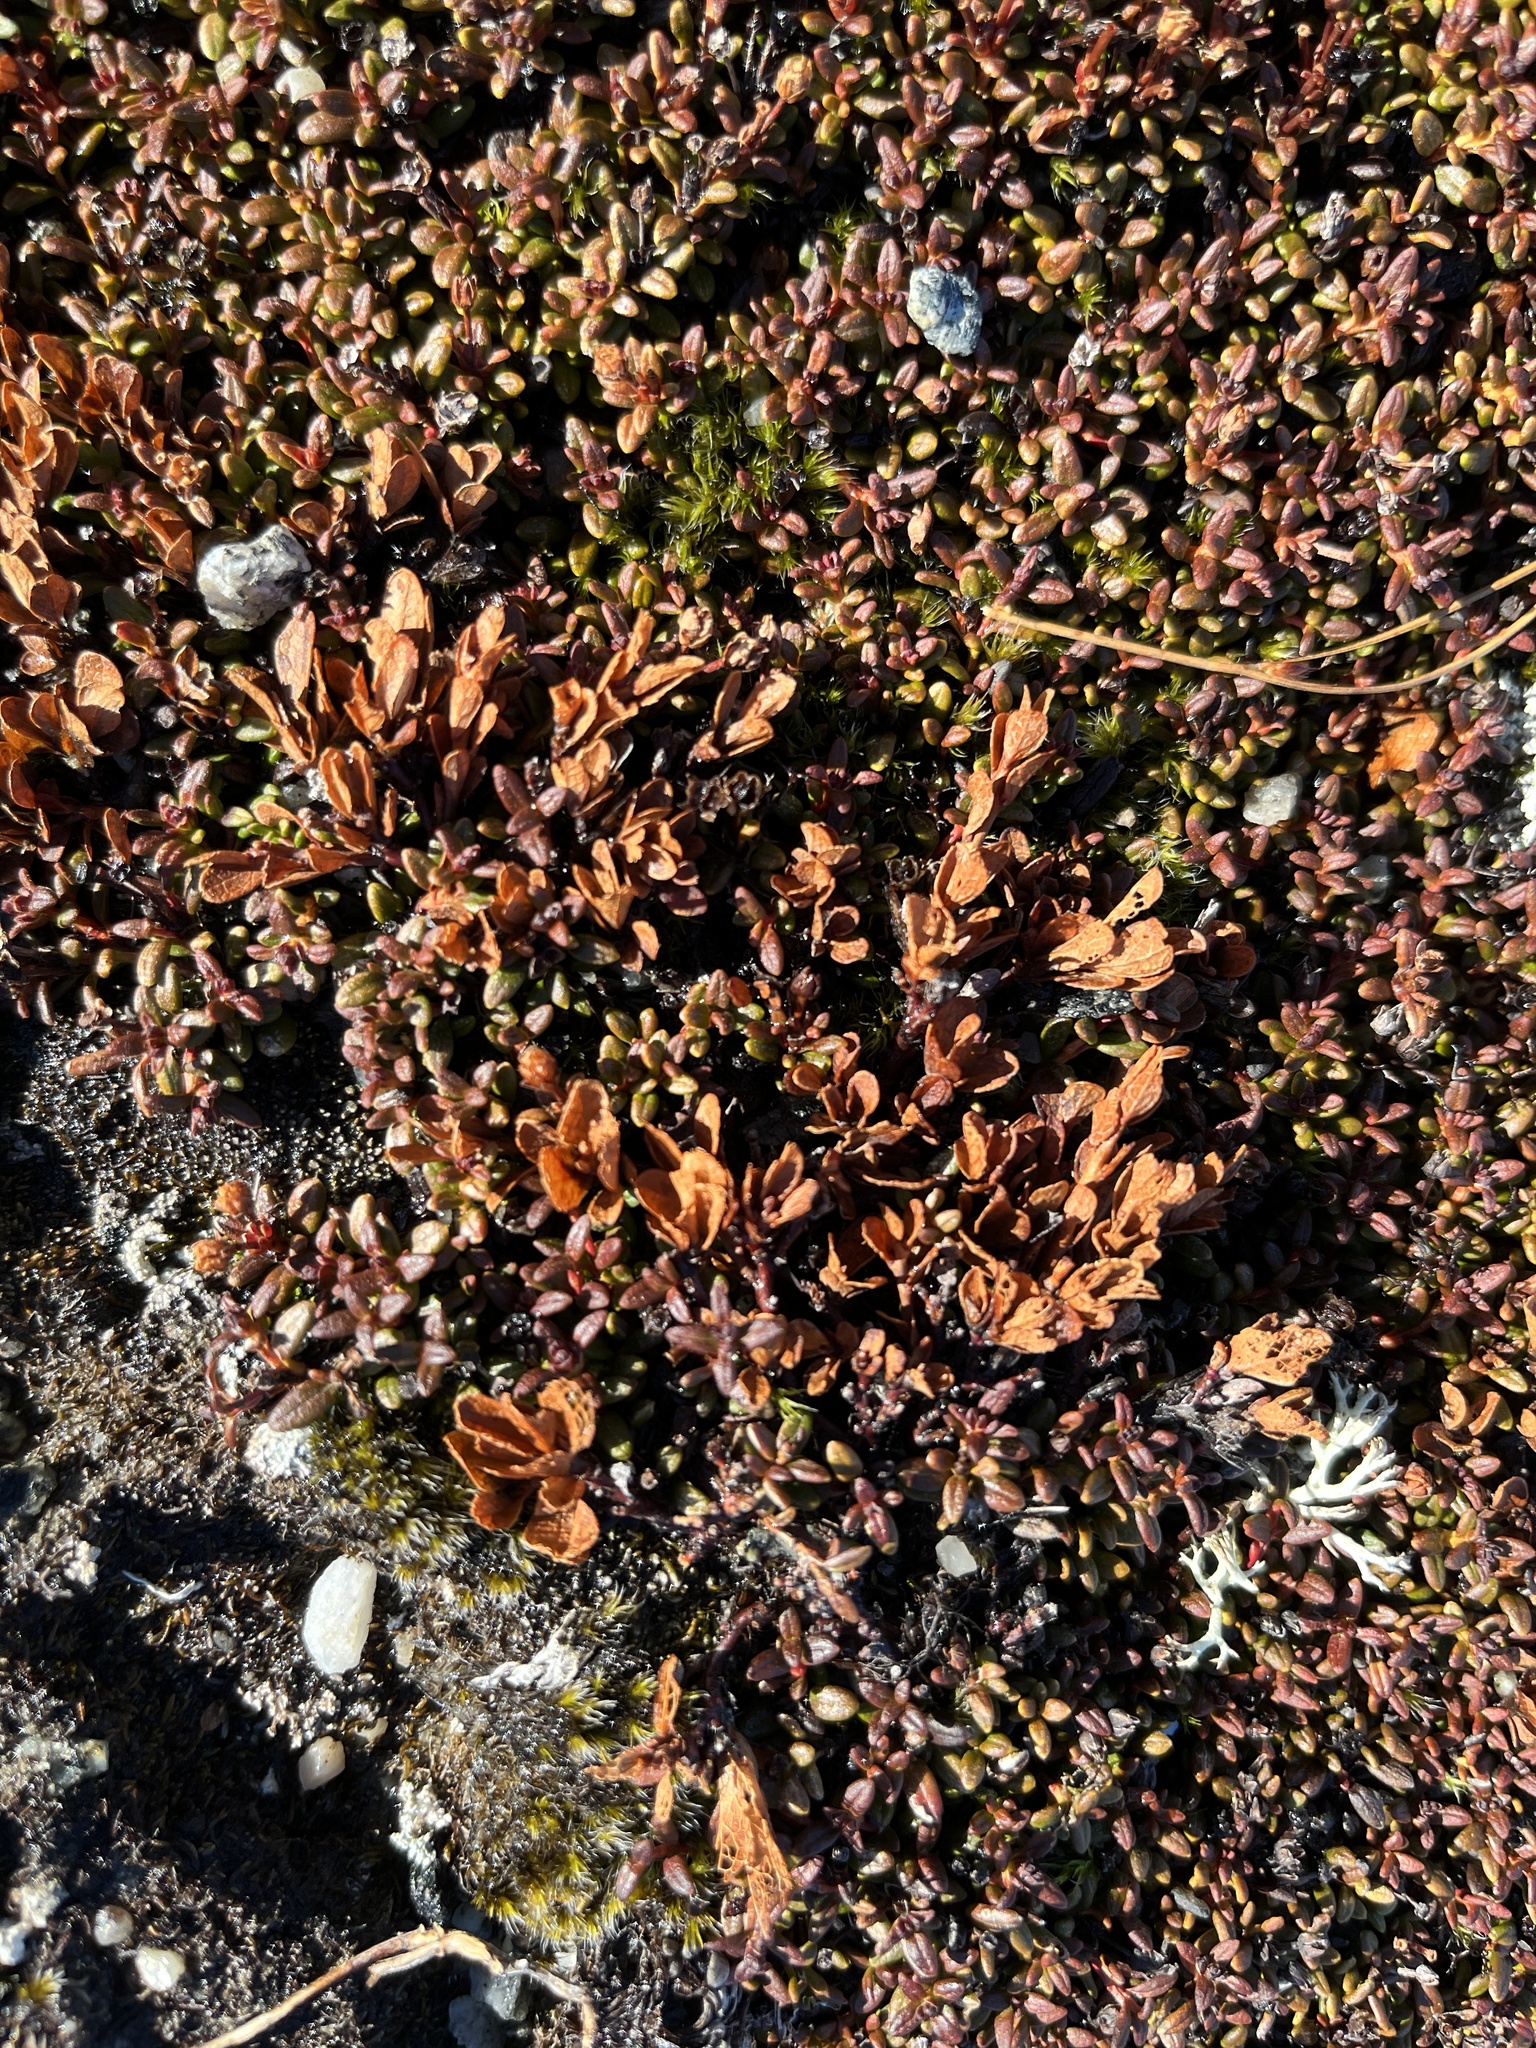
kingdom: Plantae
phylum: Tracheophyta
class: Magnoliopsida
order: Ericales
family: Ericaceae
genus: Vaccinium
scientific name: Vaccinium uliginosum
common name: Bog bilberry
